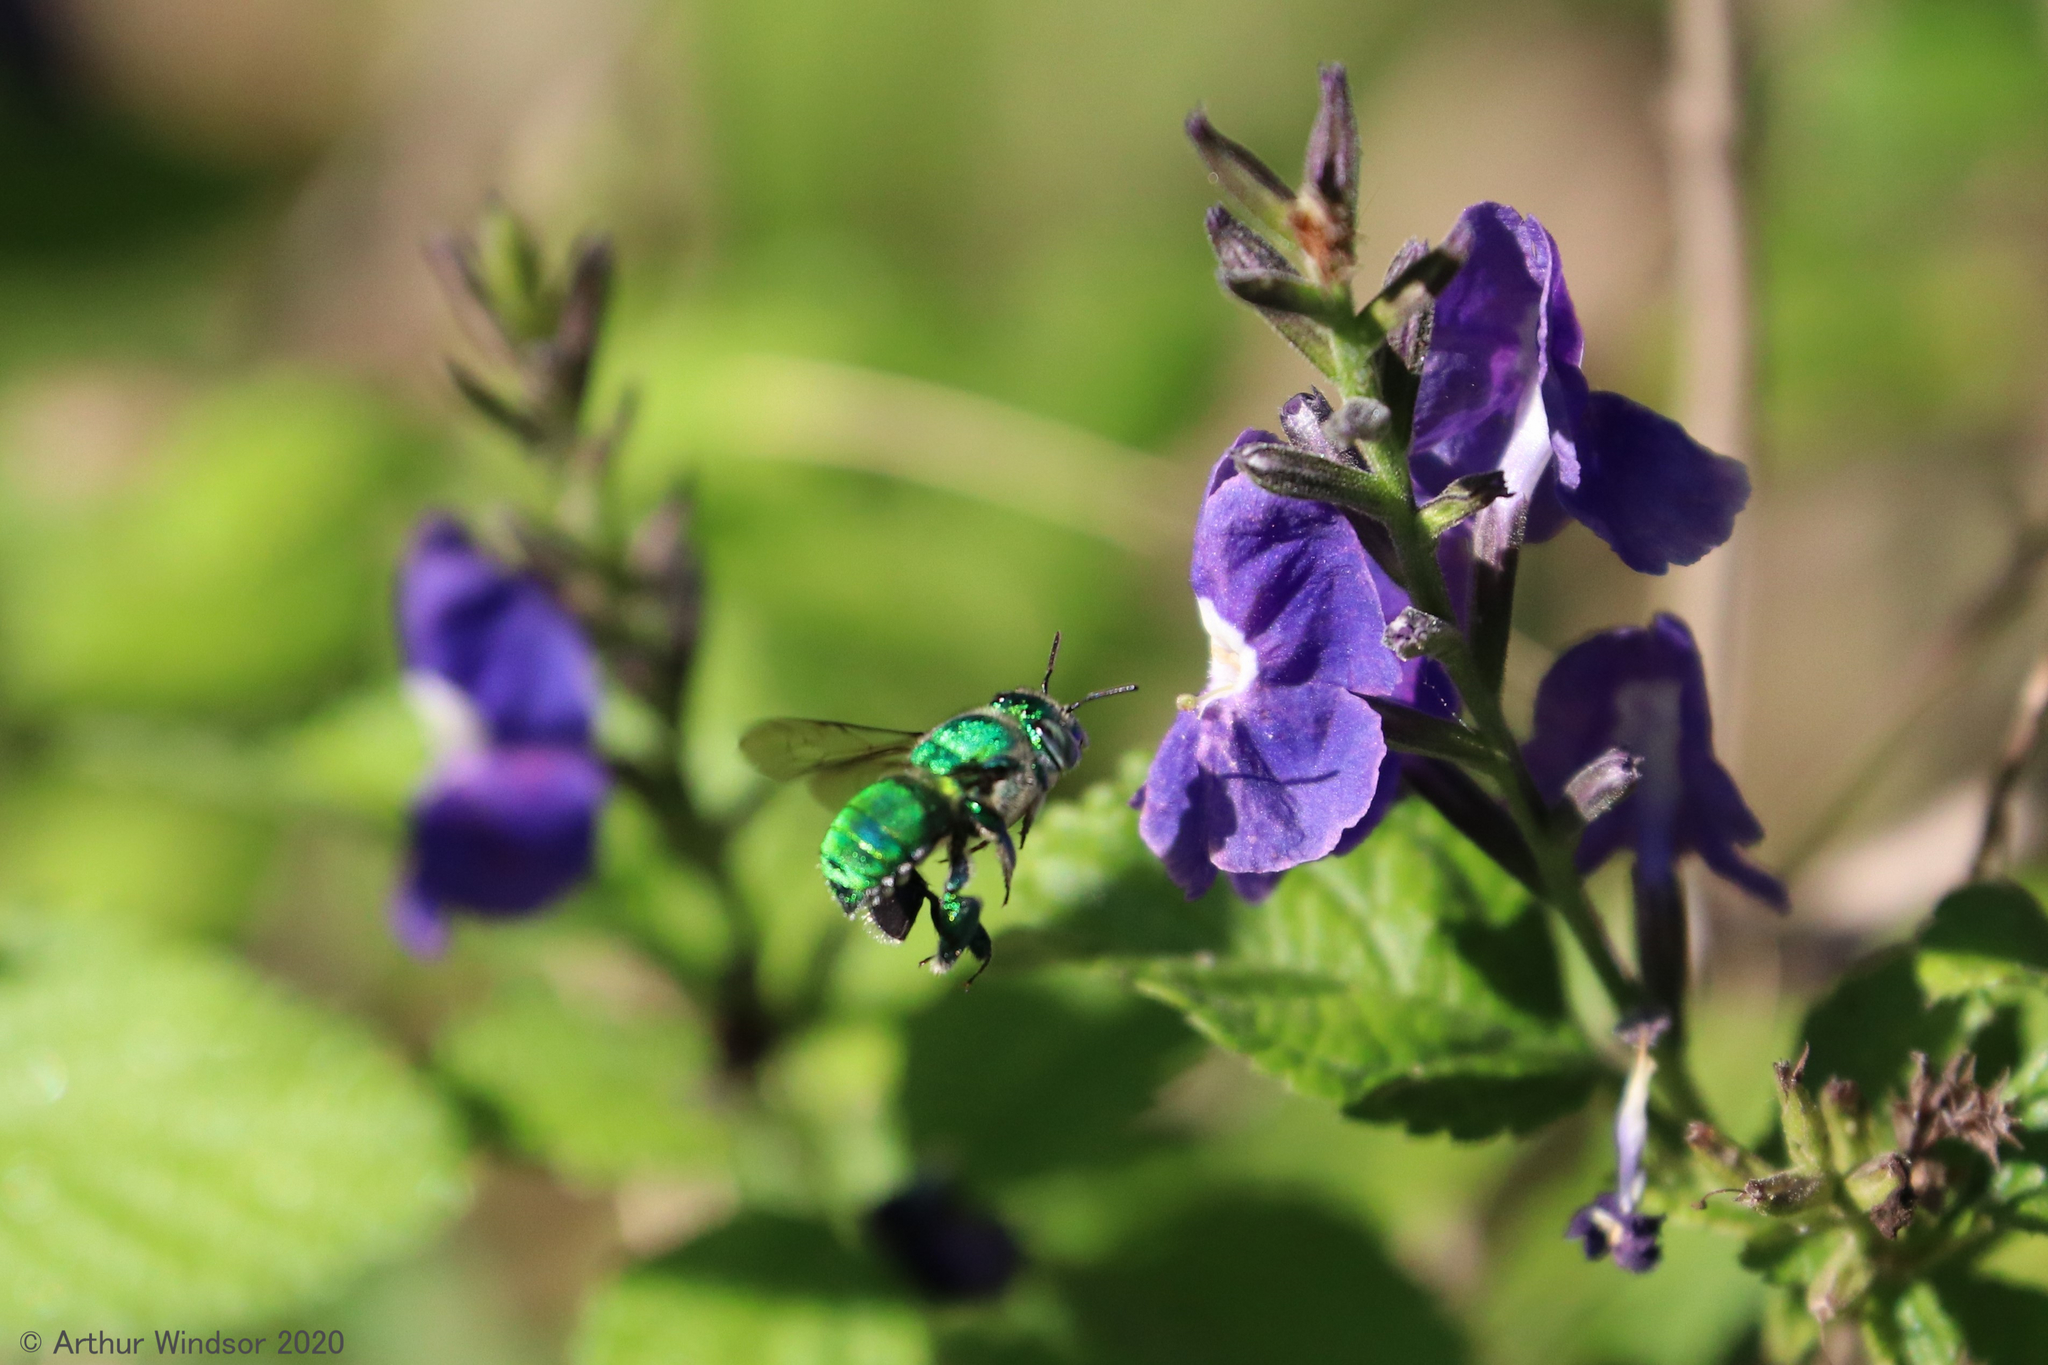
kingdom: Animalia
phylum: Arthropoda
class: Insecta
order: Hymenoptera
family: Apidae
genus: Euglossa
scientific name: Euglossa dilemma
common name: Green orchid bee
